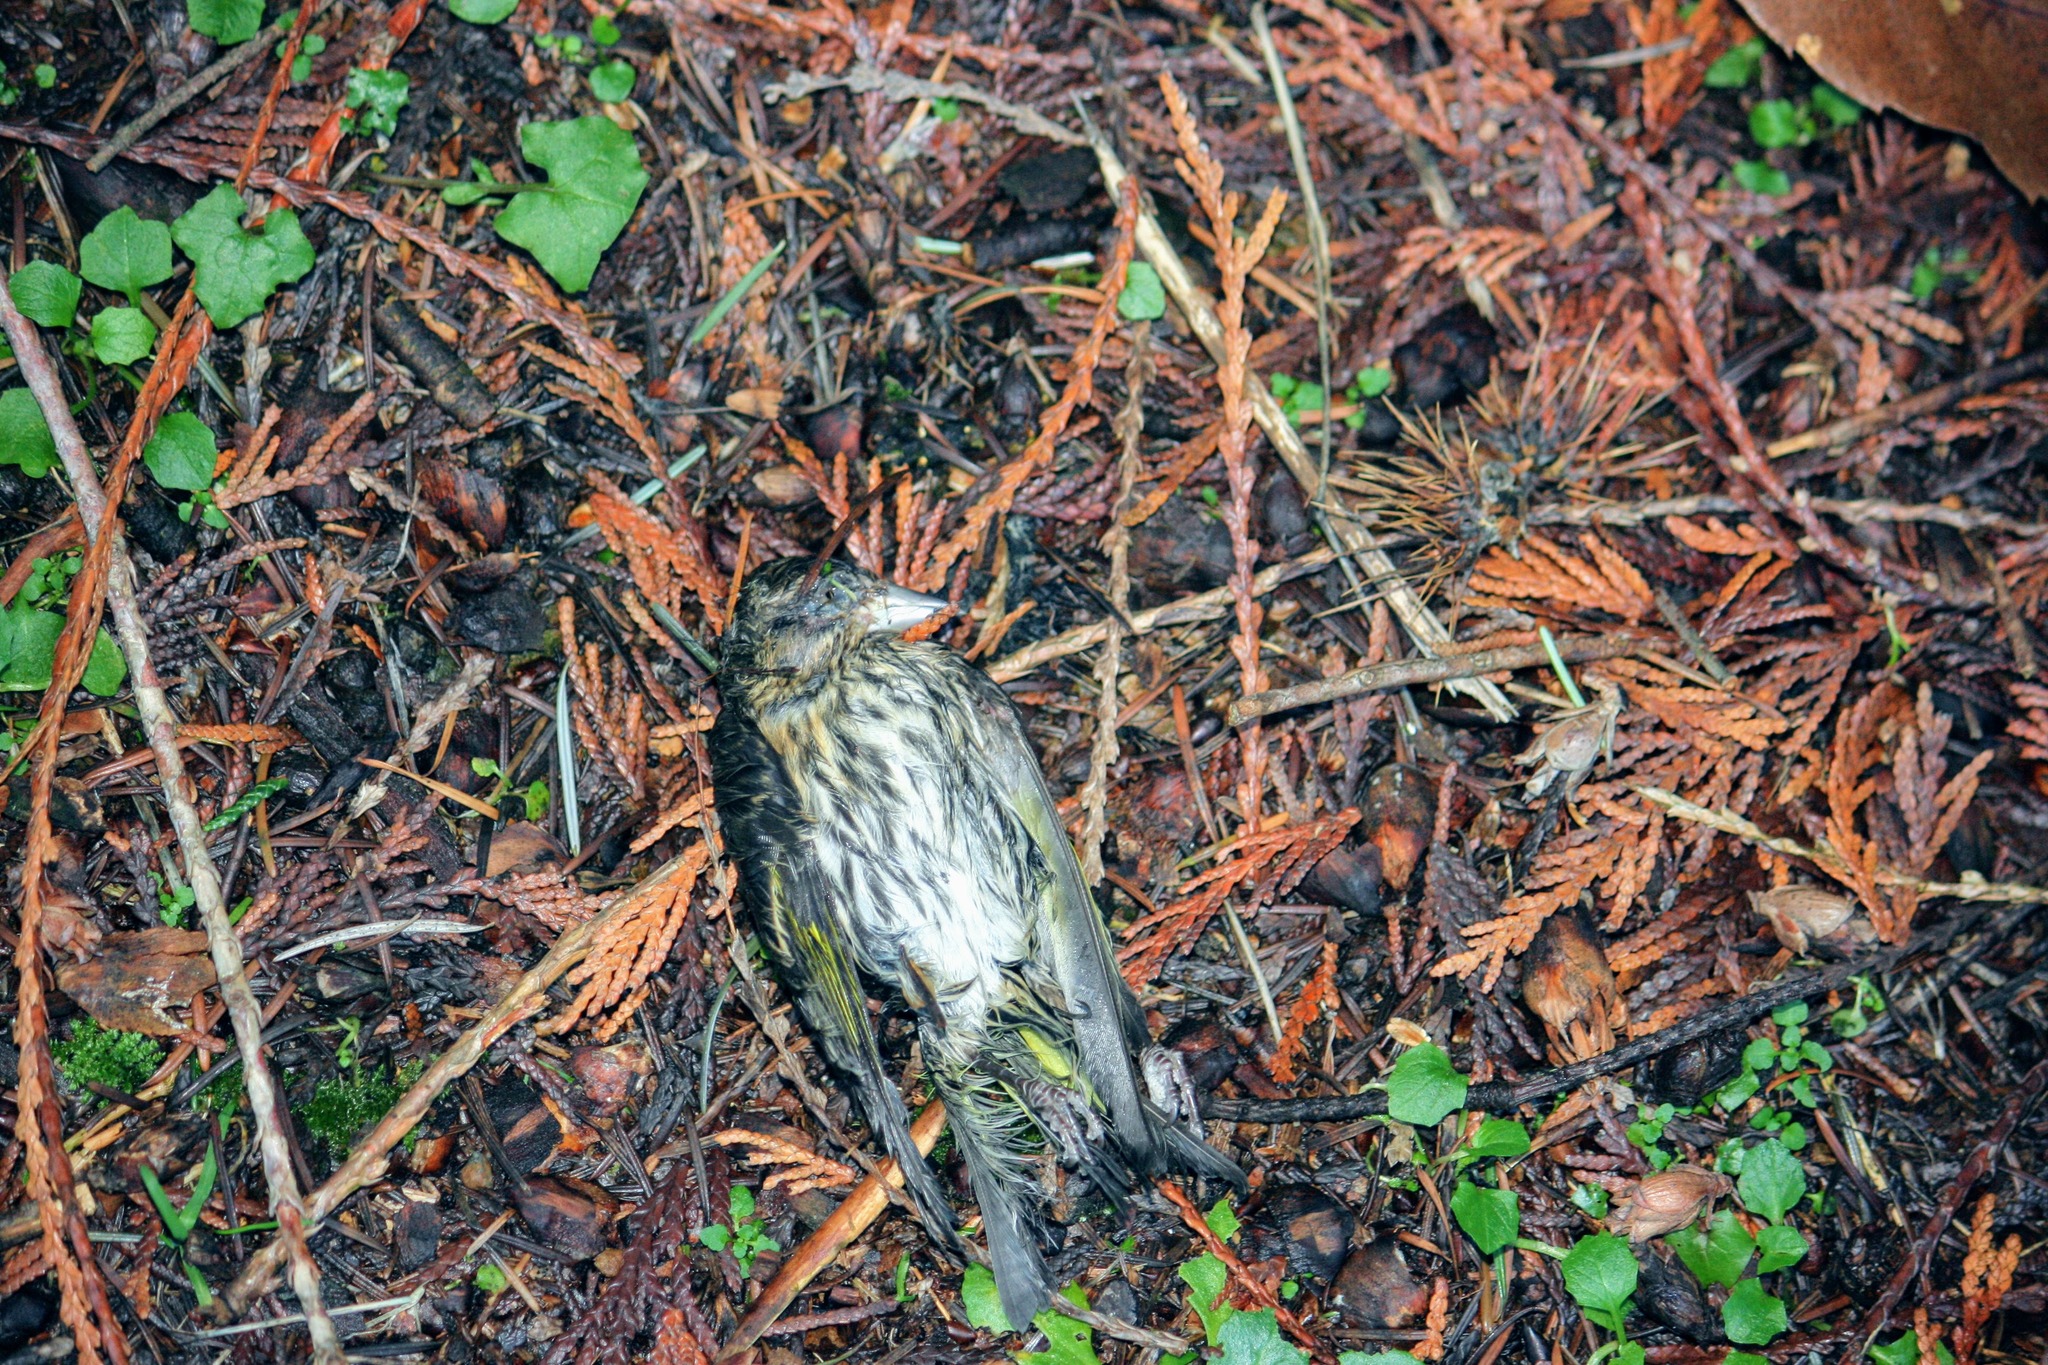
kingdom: Animalia
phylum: Chordata
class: Aves
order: Passeriformes
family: Fringillidae
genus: Spinus
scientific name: Spinus pinus
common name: Pine siskin
